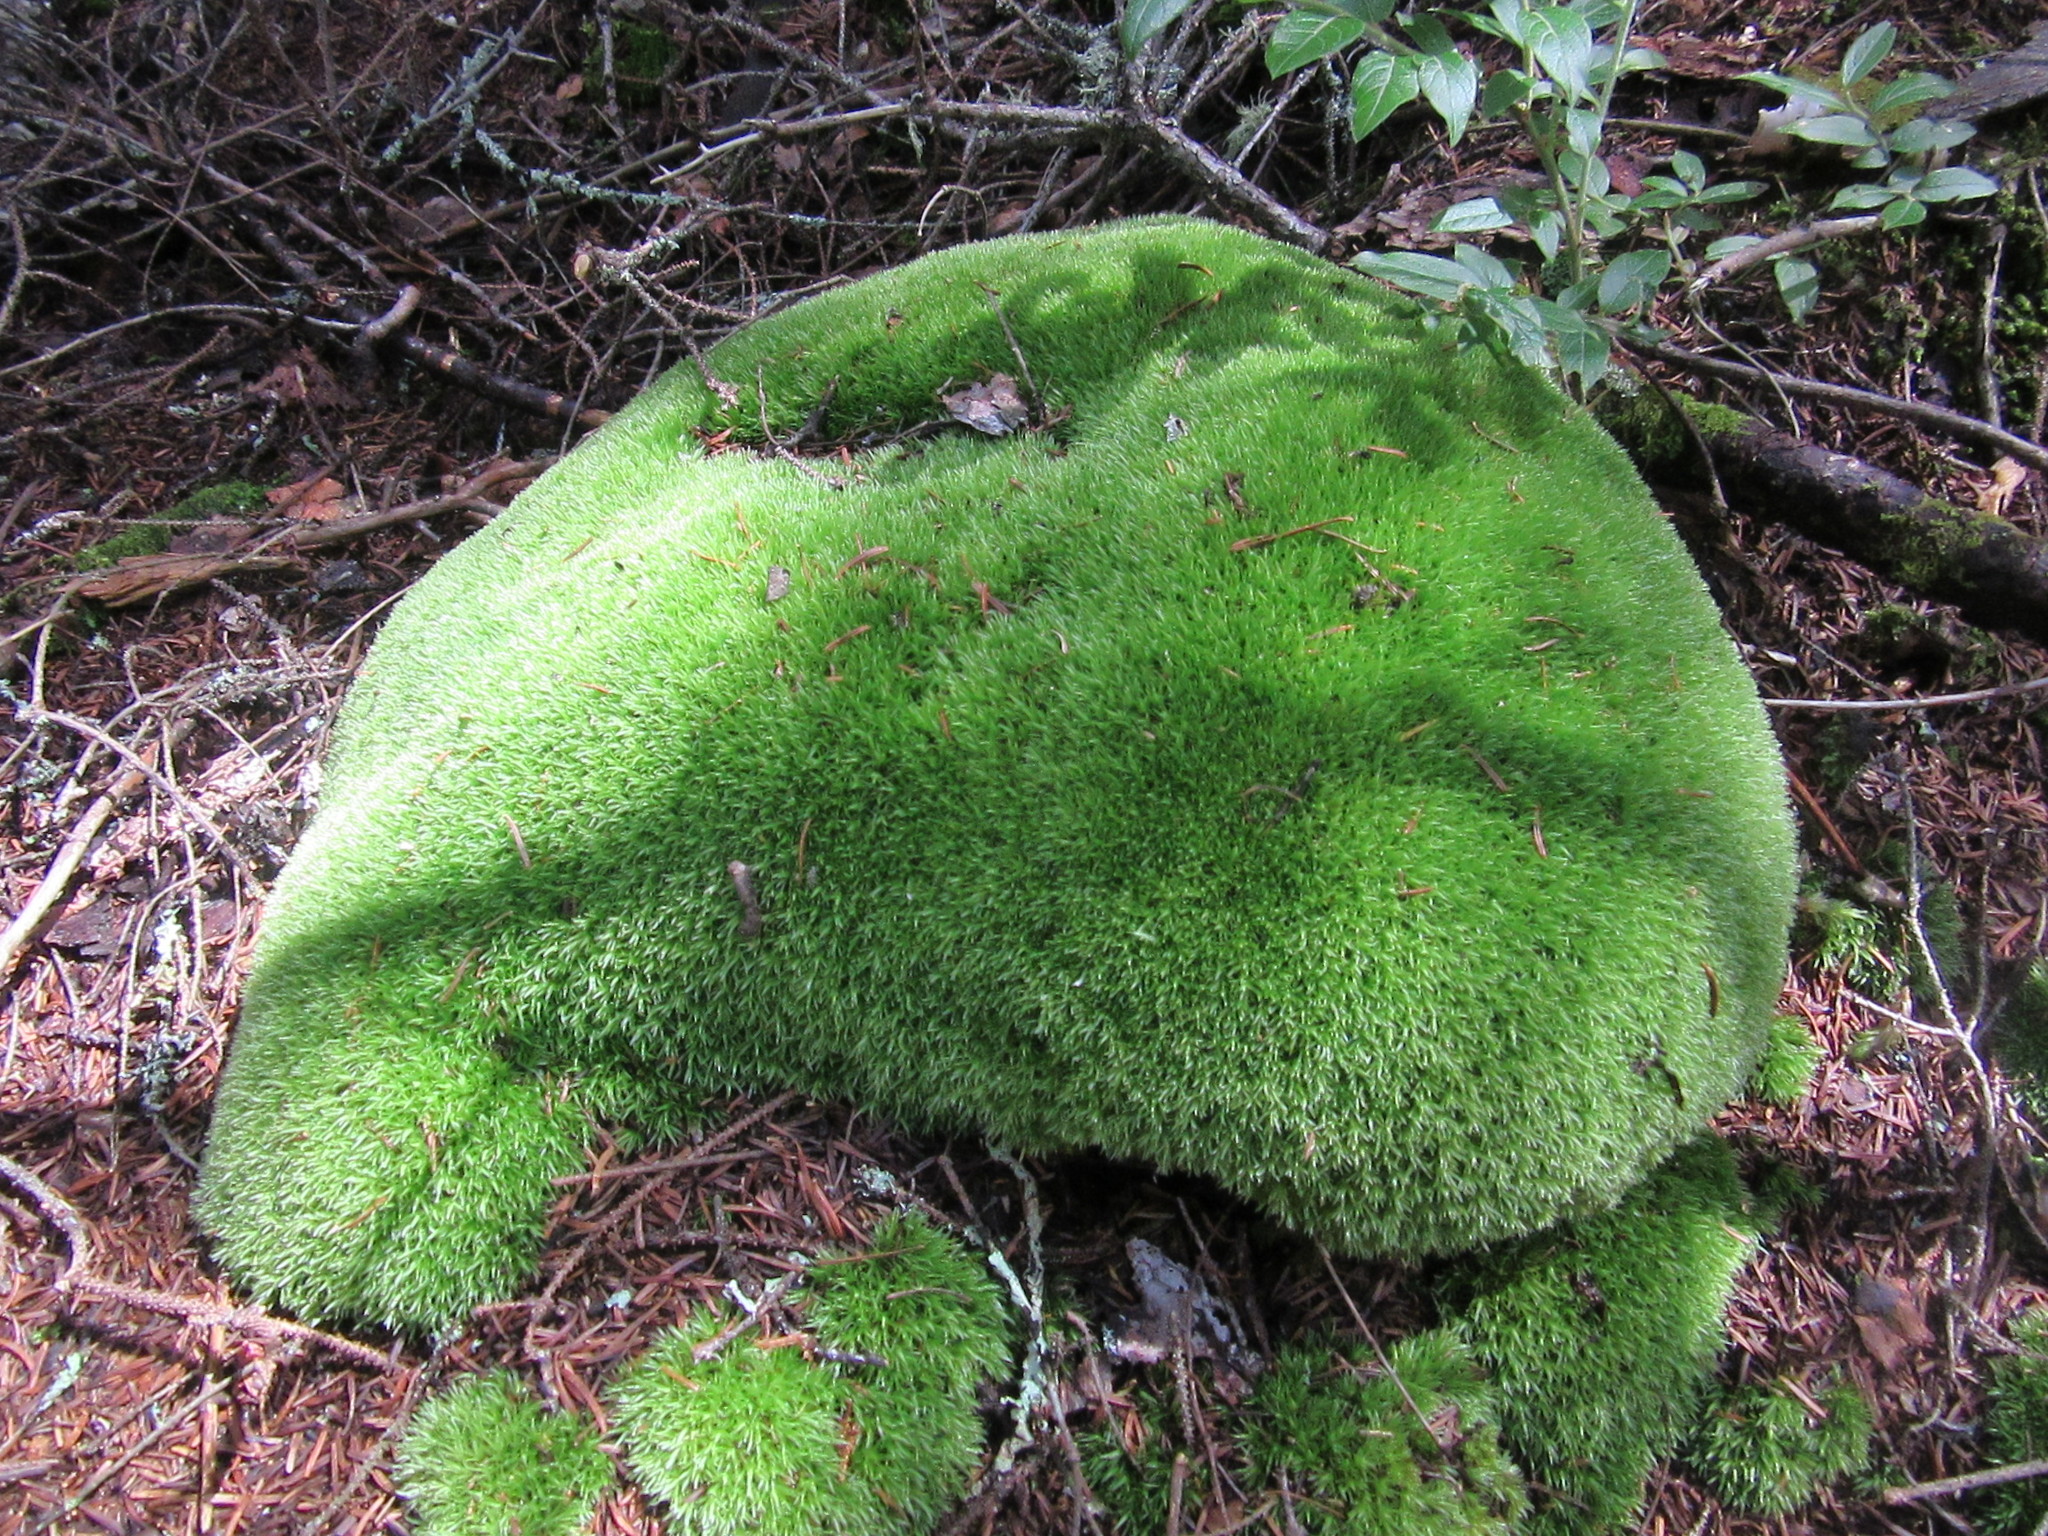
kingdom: Plantae
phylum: Bryophyta
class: Bryopsida
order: Dicranales
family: Leucobryaceae
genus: Leucobryum
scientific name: Leucobryum glaucum
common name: Large white-moss
